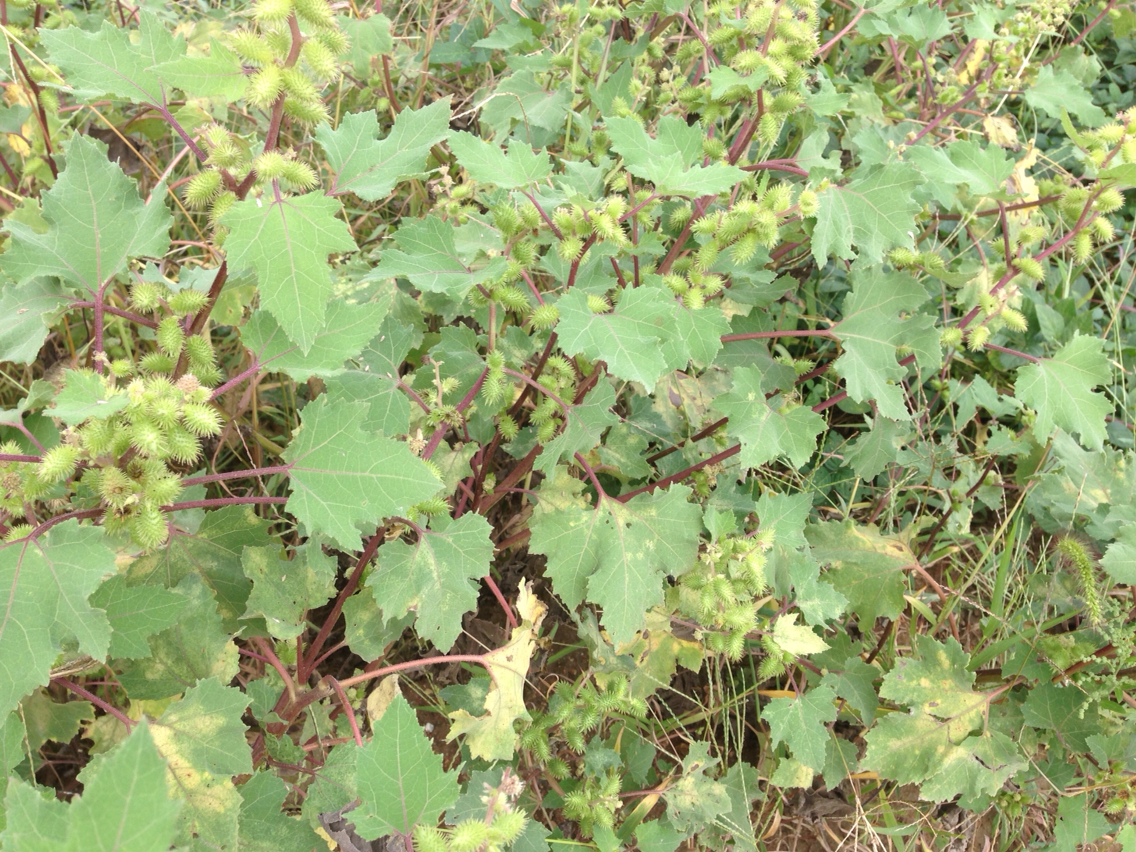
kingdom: Plantae
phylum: Tracheophyta
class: Magnoliopsida
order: Asterales
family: Asteraceae
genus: Xanthium
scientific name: Xanthium strumarium
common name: Rough cocklebur
